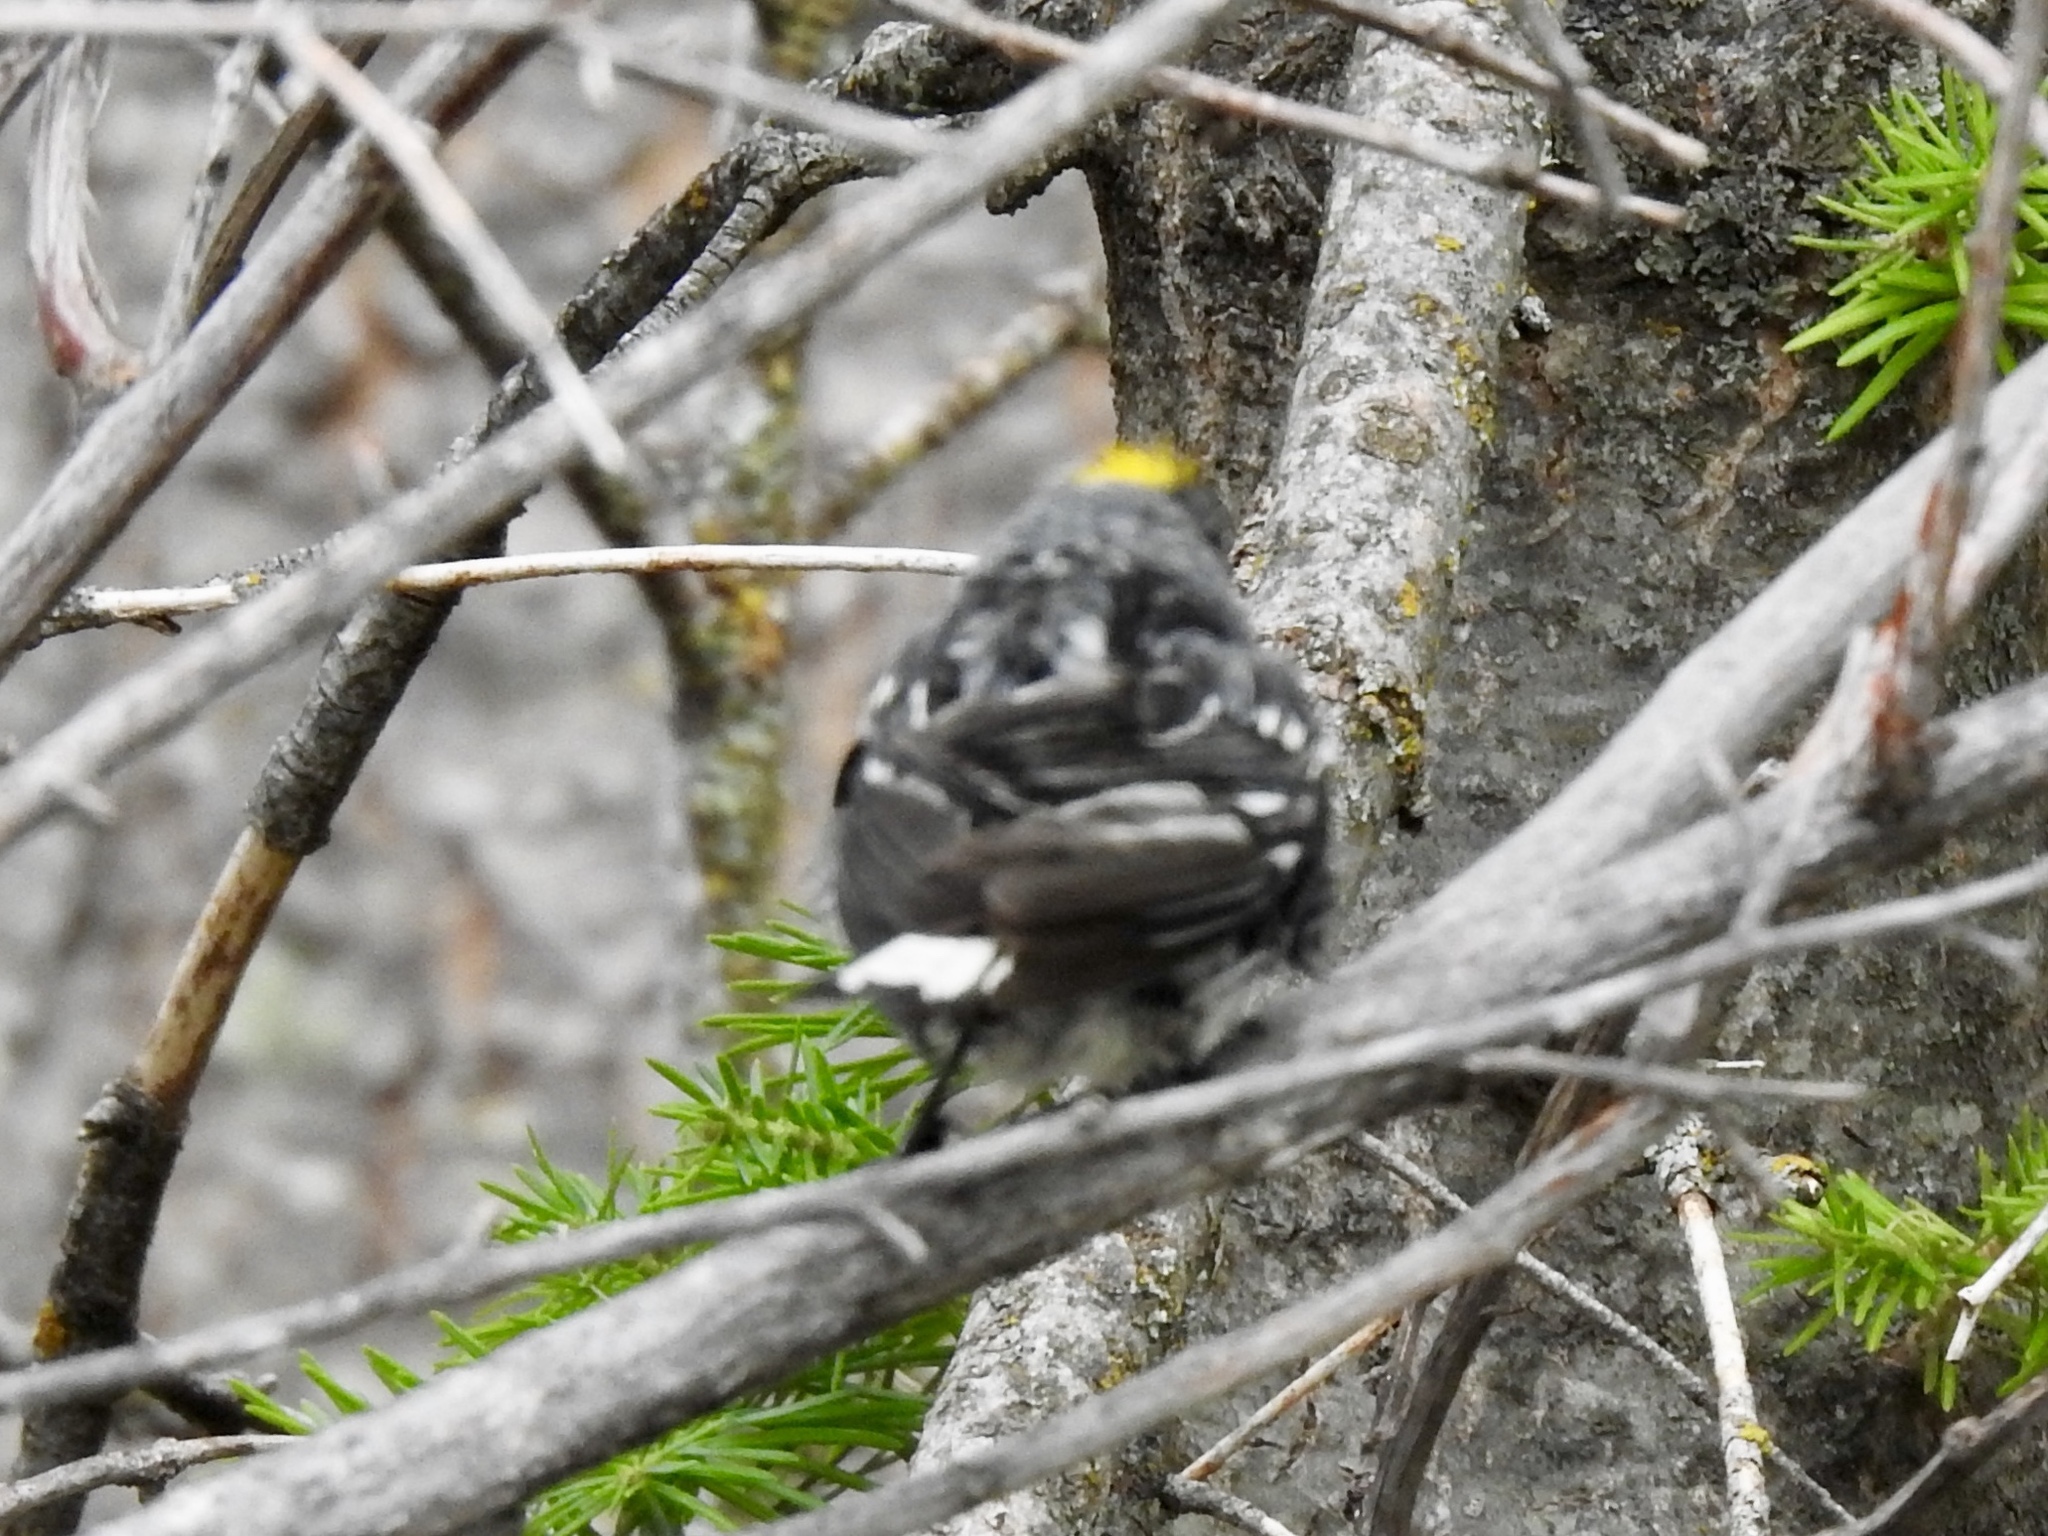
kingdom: Animalia
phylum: Chordata
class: Aves
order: Passeriformes
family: Parulidae
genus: Setophaga
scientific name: Setophaga coronata
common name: Myrtle warbler
